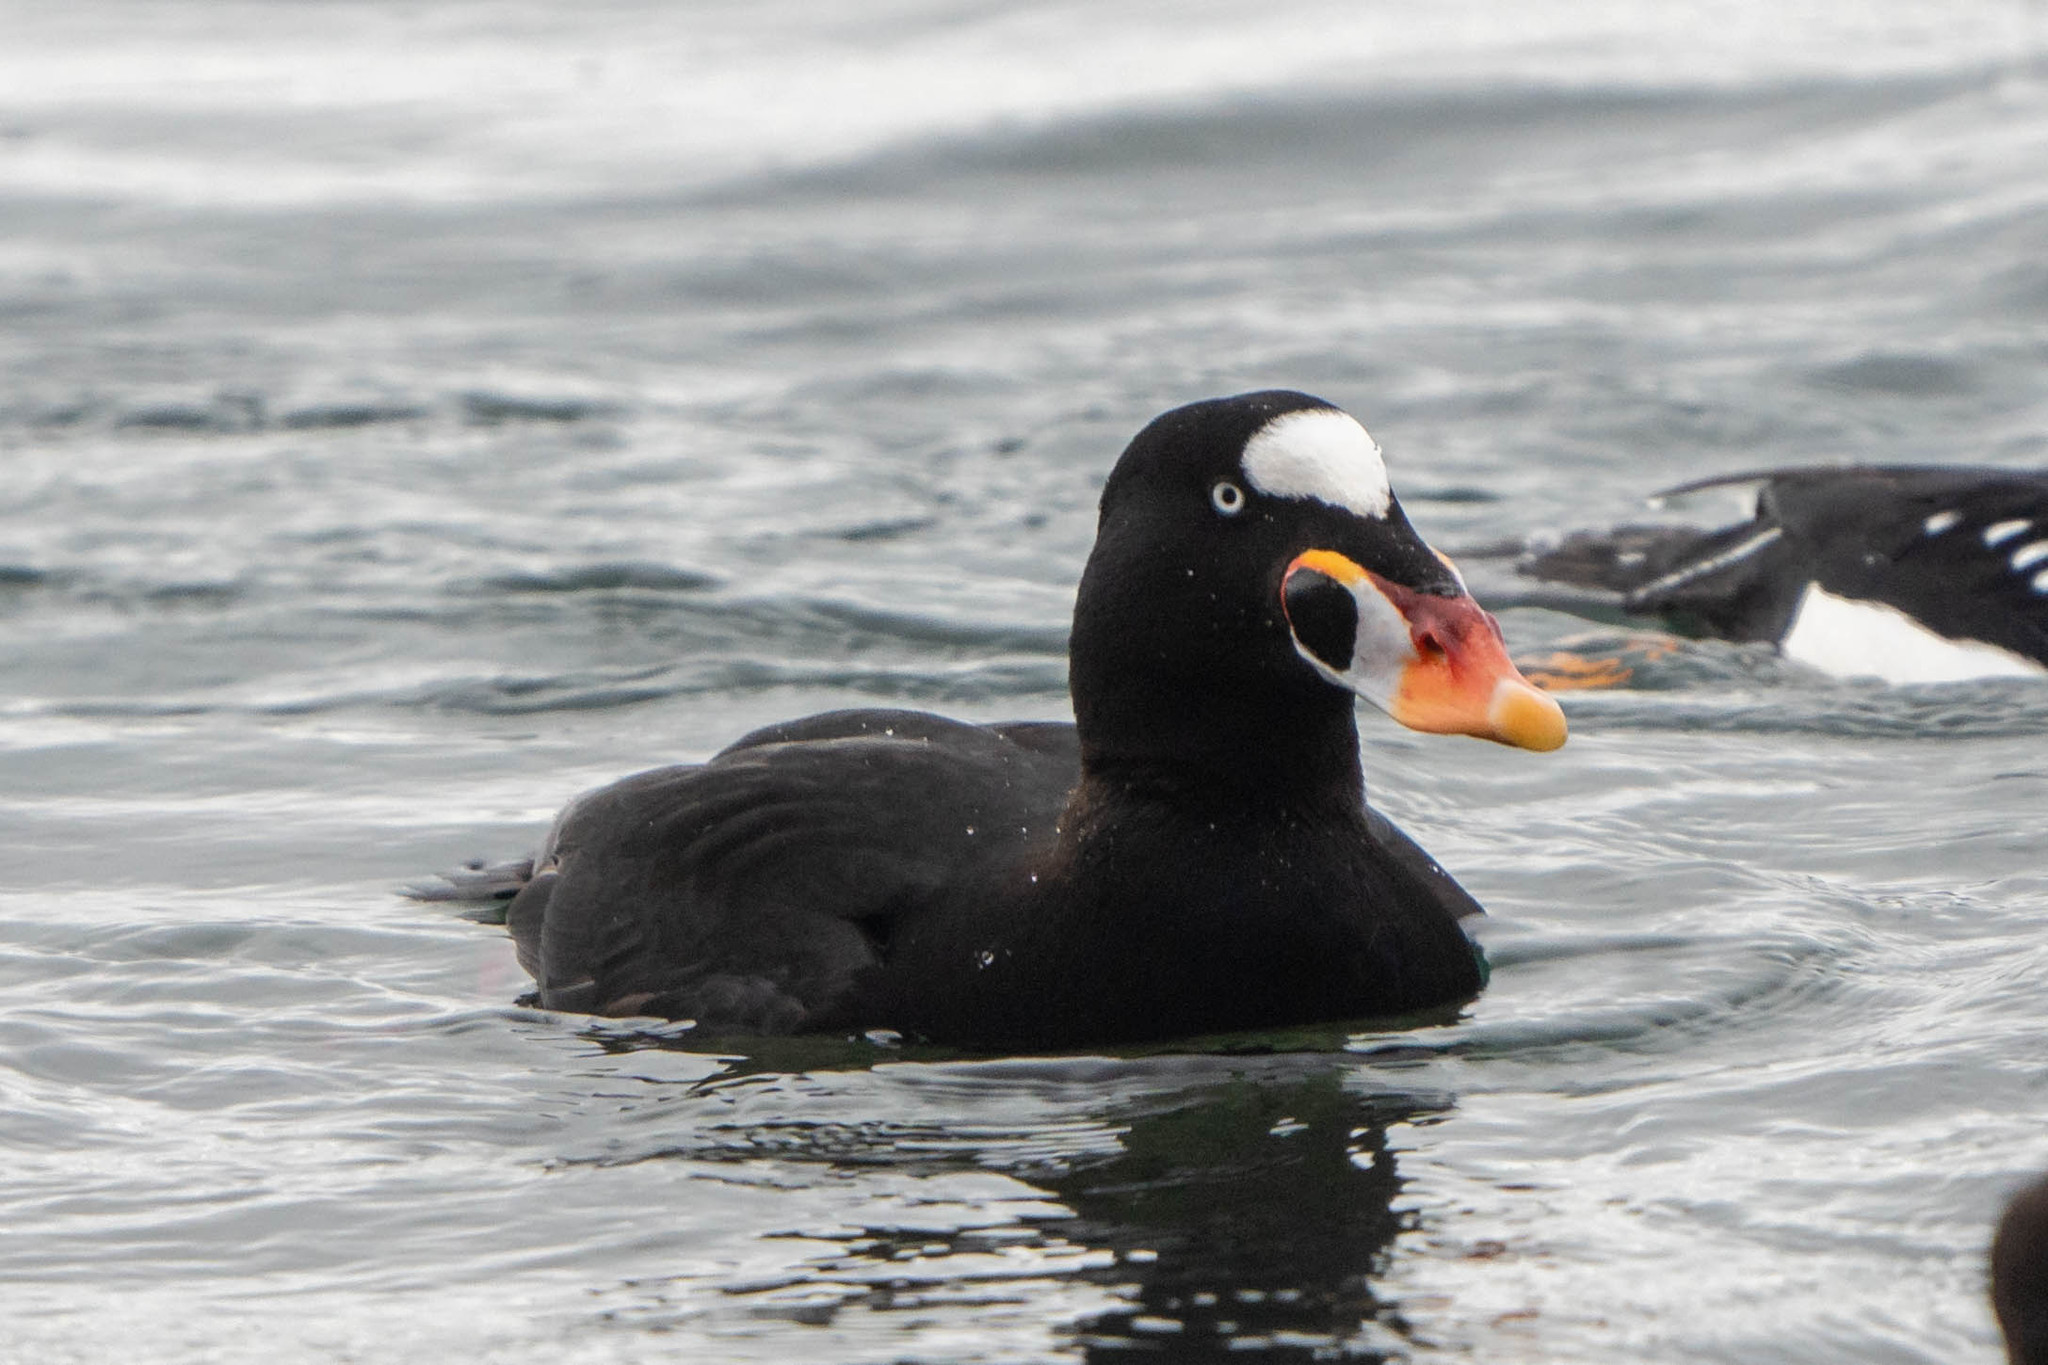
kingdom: Animalia
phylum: Chordata
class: Aves
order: Anseriformes
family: Anatidae
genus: Melanitta
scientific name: Melanitta perspicillata
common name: Surf scoter
